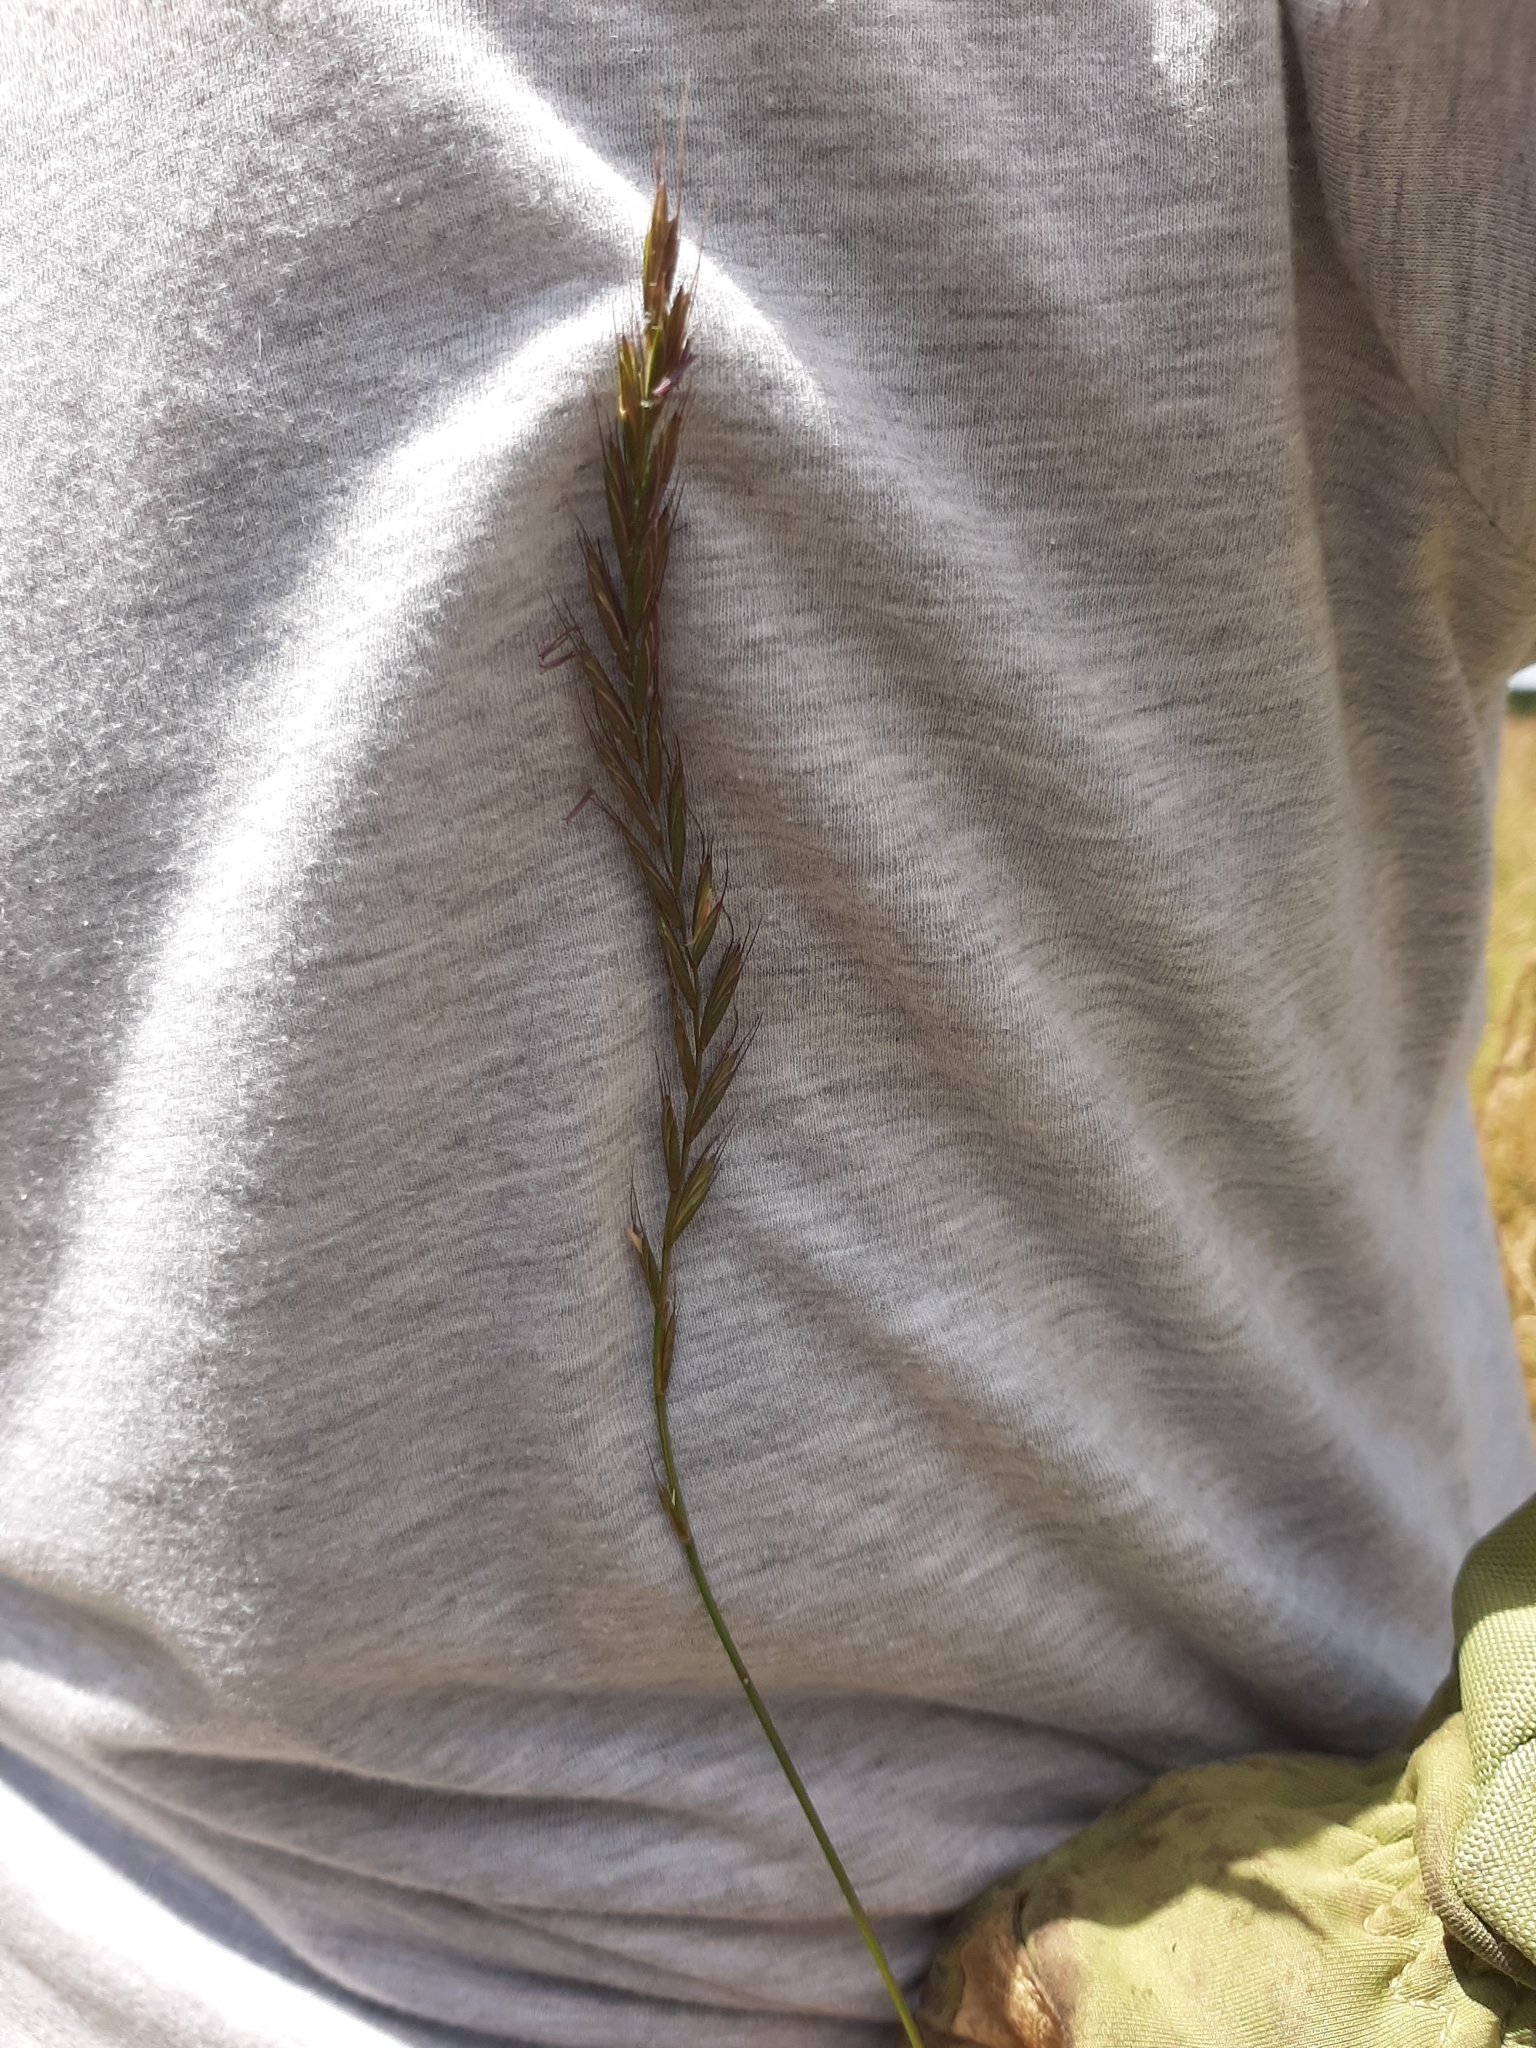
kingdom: Plantae
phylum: Tracheophyta
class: Liliopsida
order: Poales
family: Poaceae
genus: Lolium
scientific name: Lolium multiflorum
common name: Annual ryegrass
